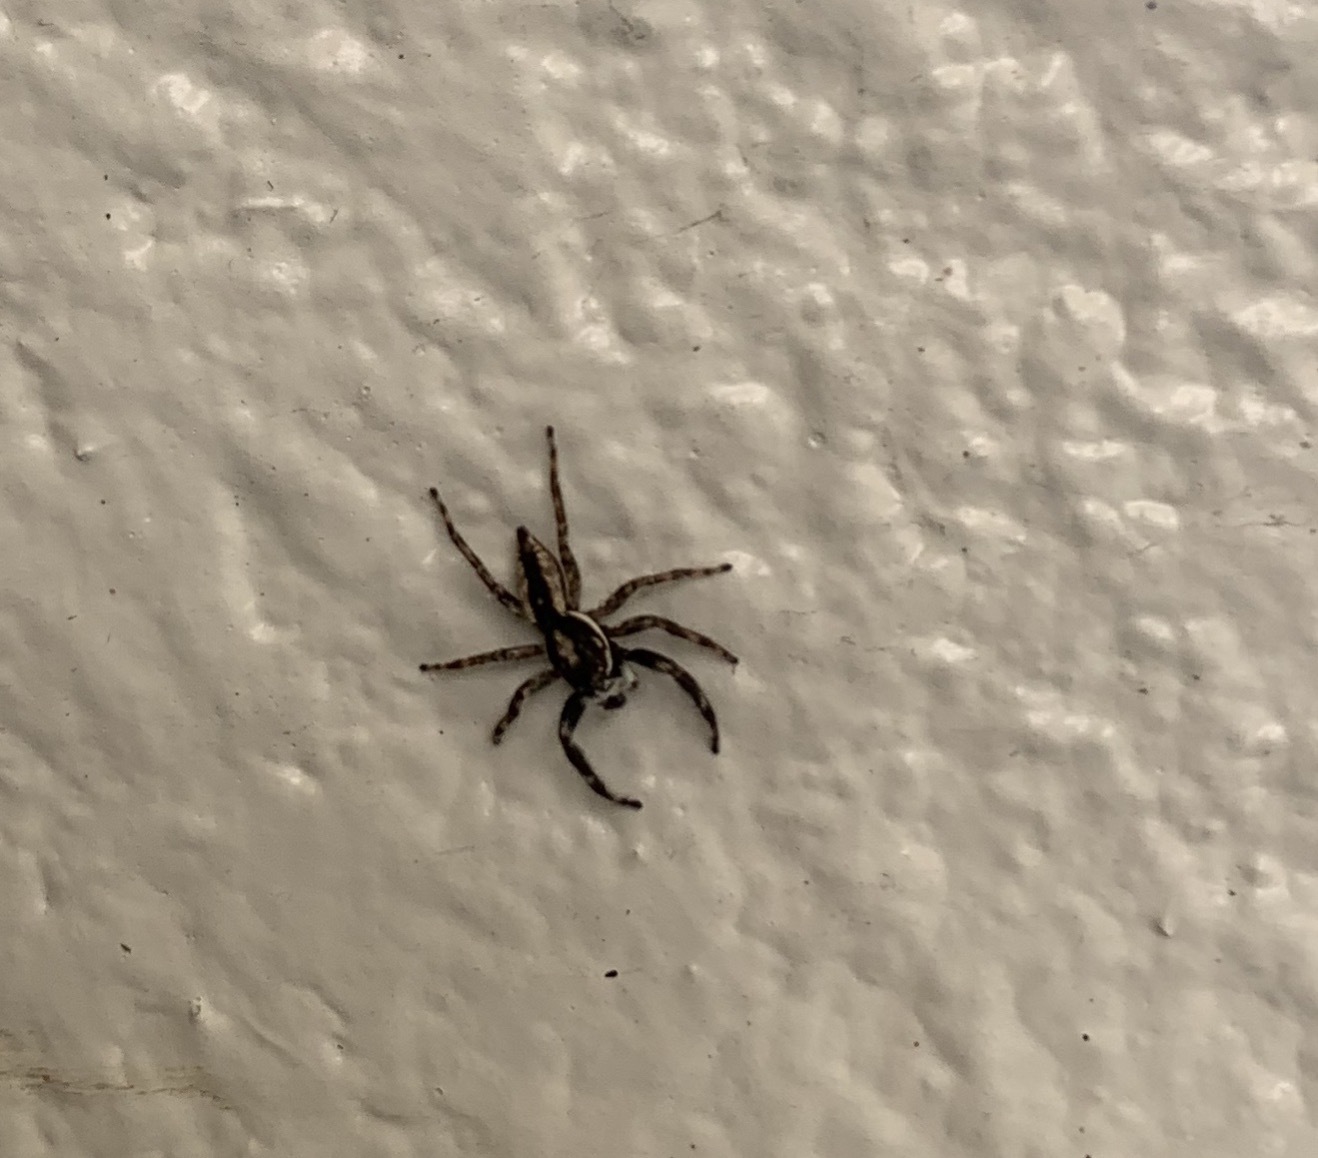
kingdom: Animalia
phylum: Arthropoda
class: Arachnida
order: Araneae
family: Salticidae
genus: Menemerus
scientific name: Menemerus bivittatus
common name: Gray wall jumper
